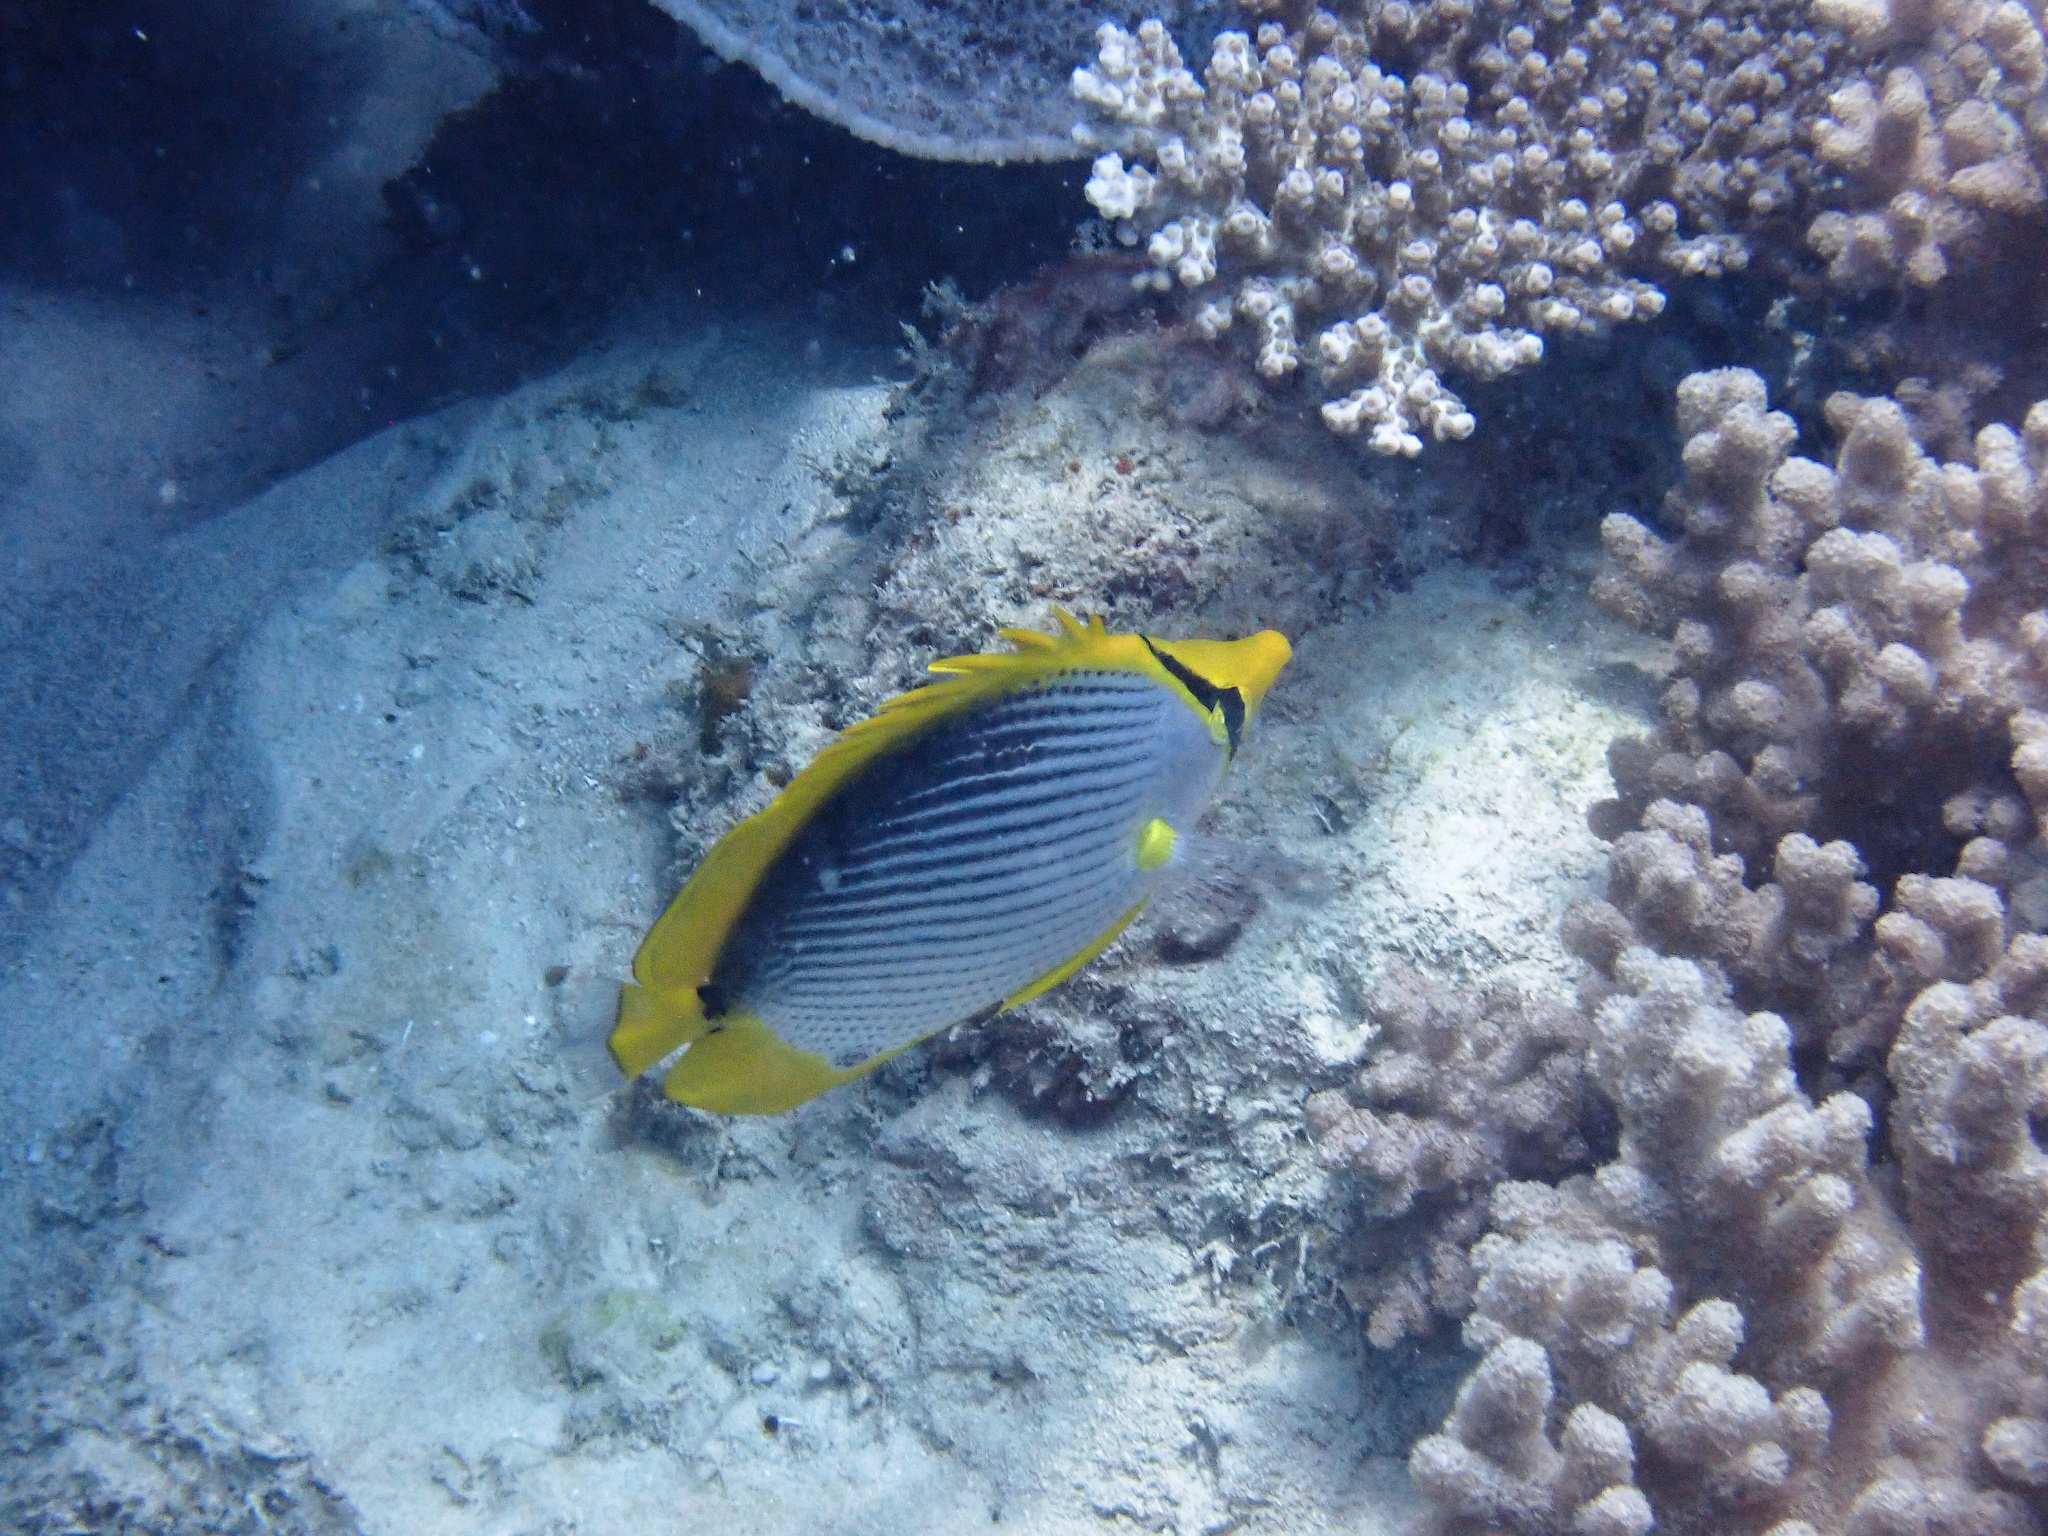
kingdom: Animalia
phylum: Chordata
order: Perciformes
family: Chaetodontidae
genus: Chaetodon
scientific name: Chaetodon melannotus
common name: Blackback butterflyfish
